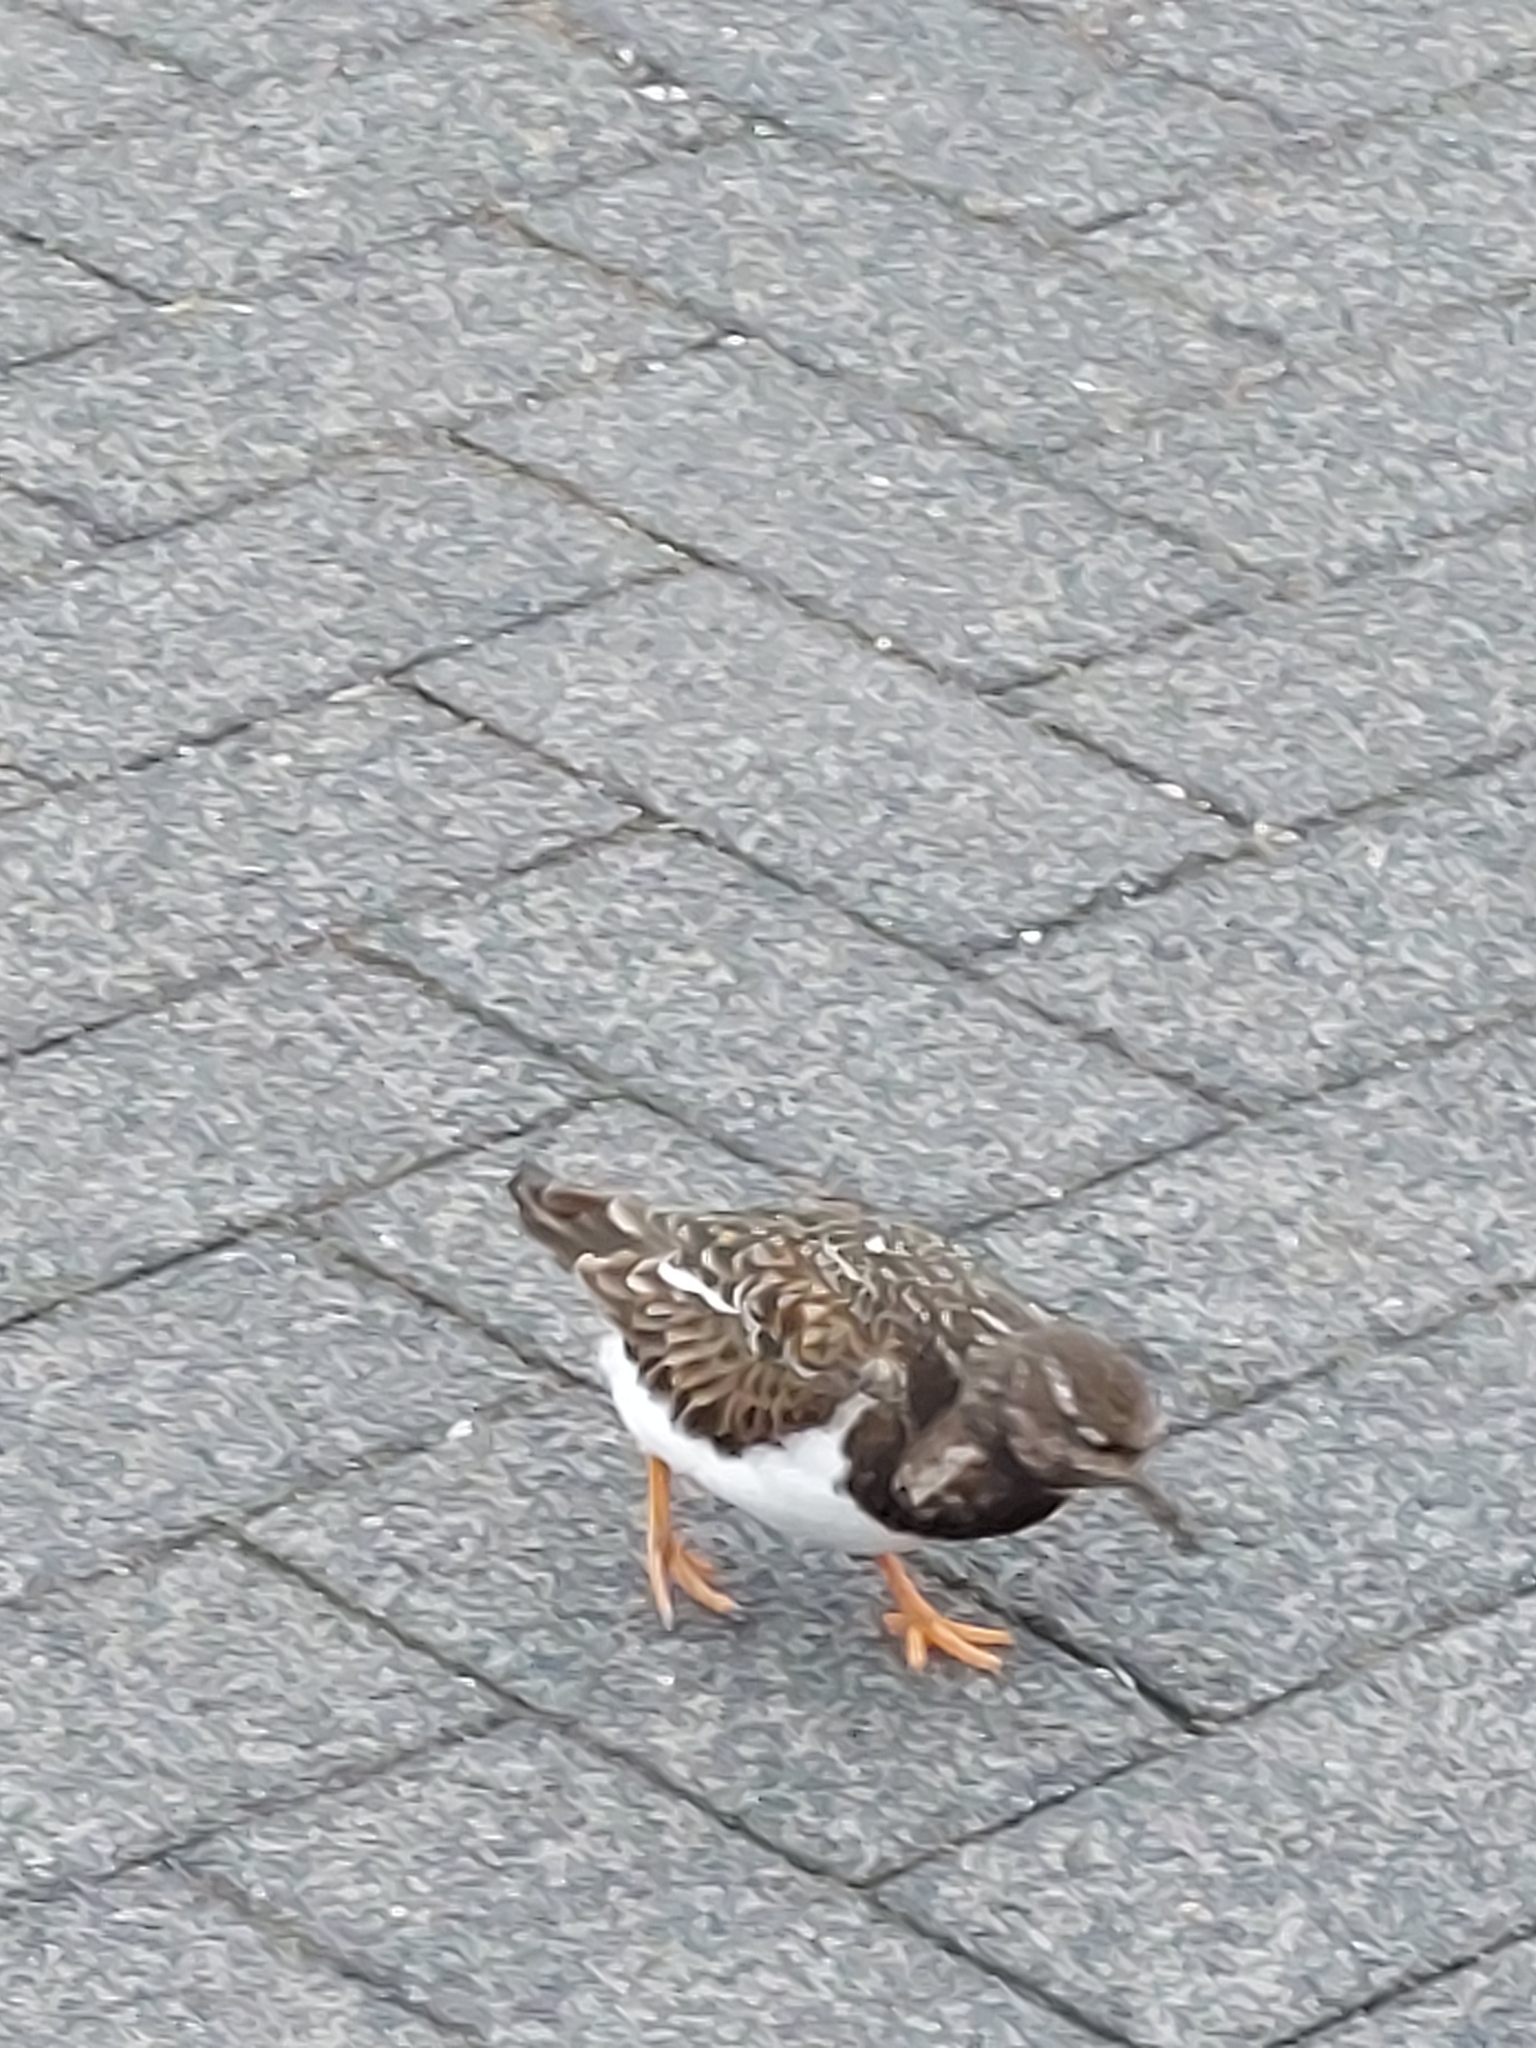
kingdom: Animalia
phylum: Chordata
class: Aves
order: Charadriiformes
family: Scolopacidae
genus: Arenaria
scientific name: Arenaria interpres
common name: Ruddy turnstone
